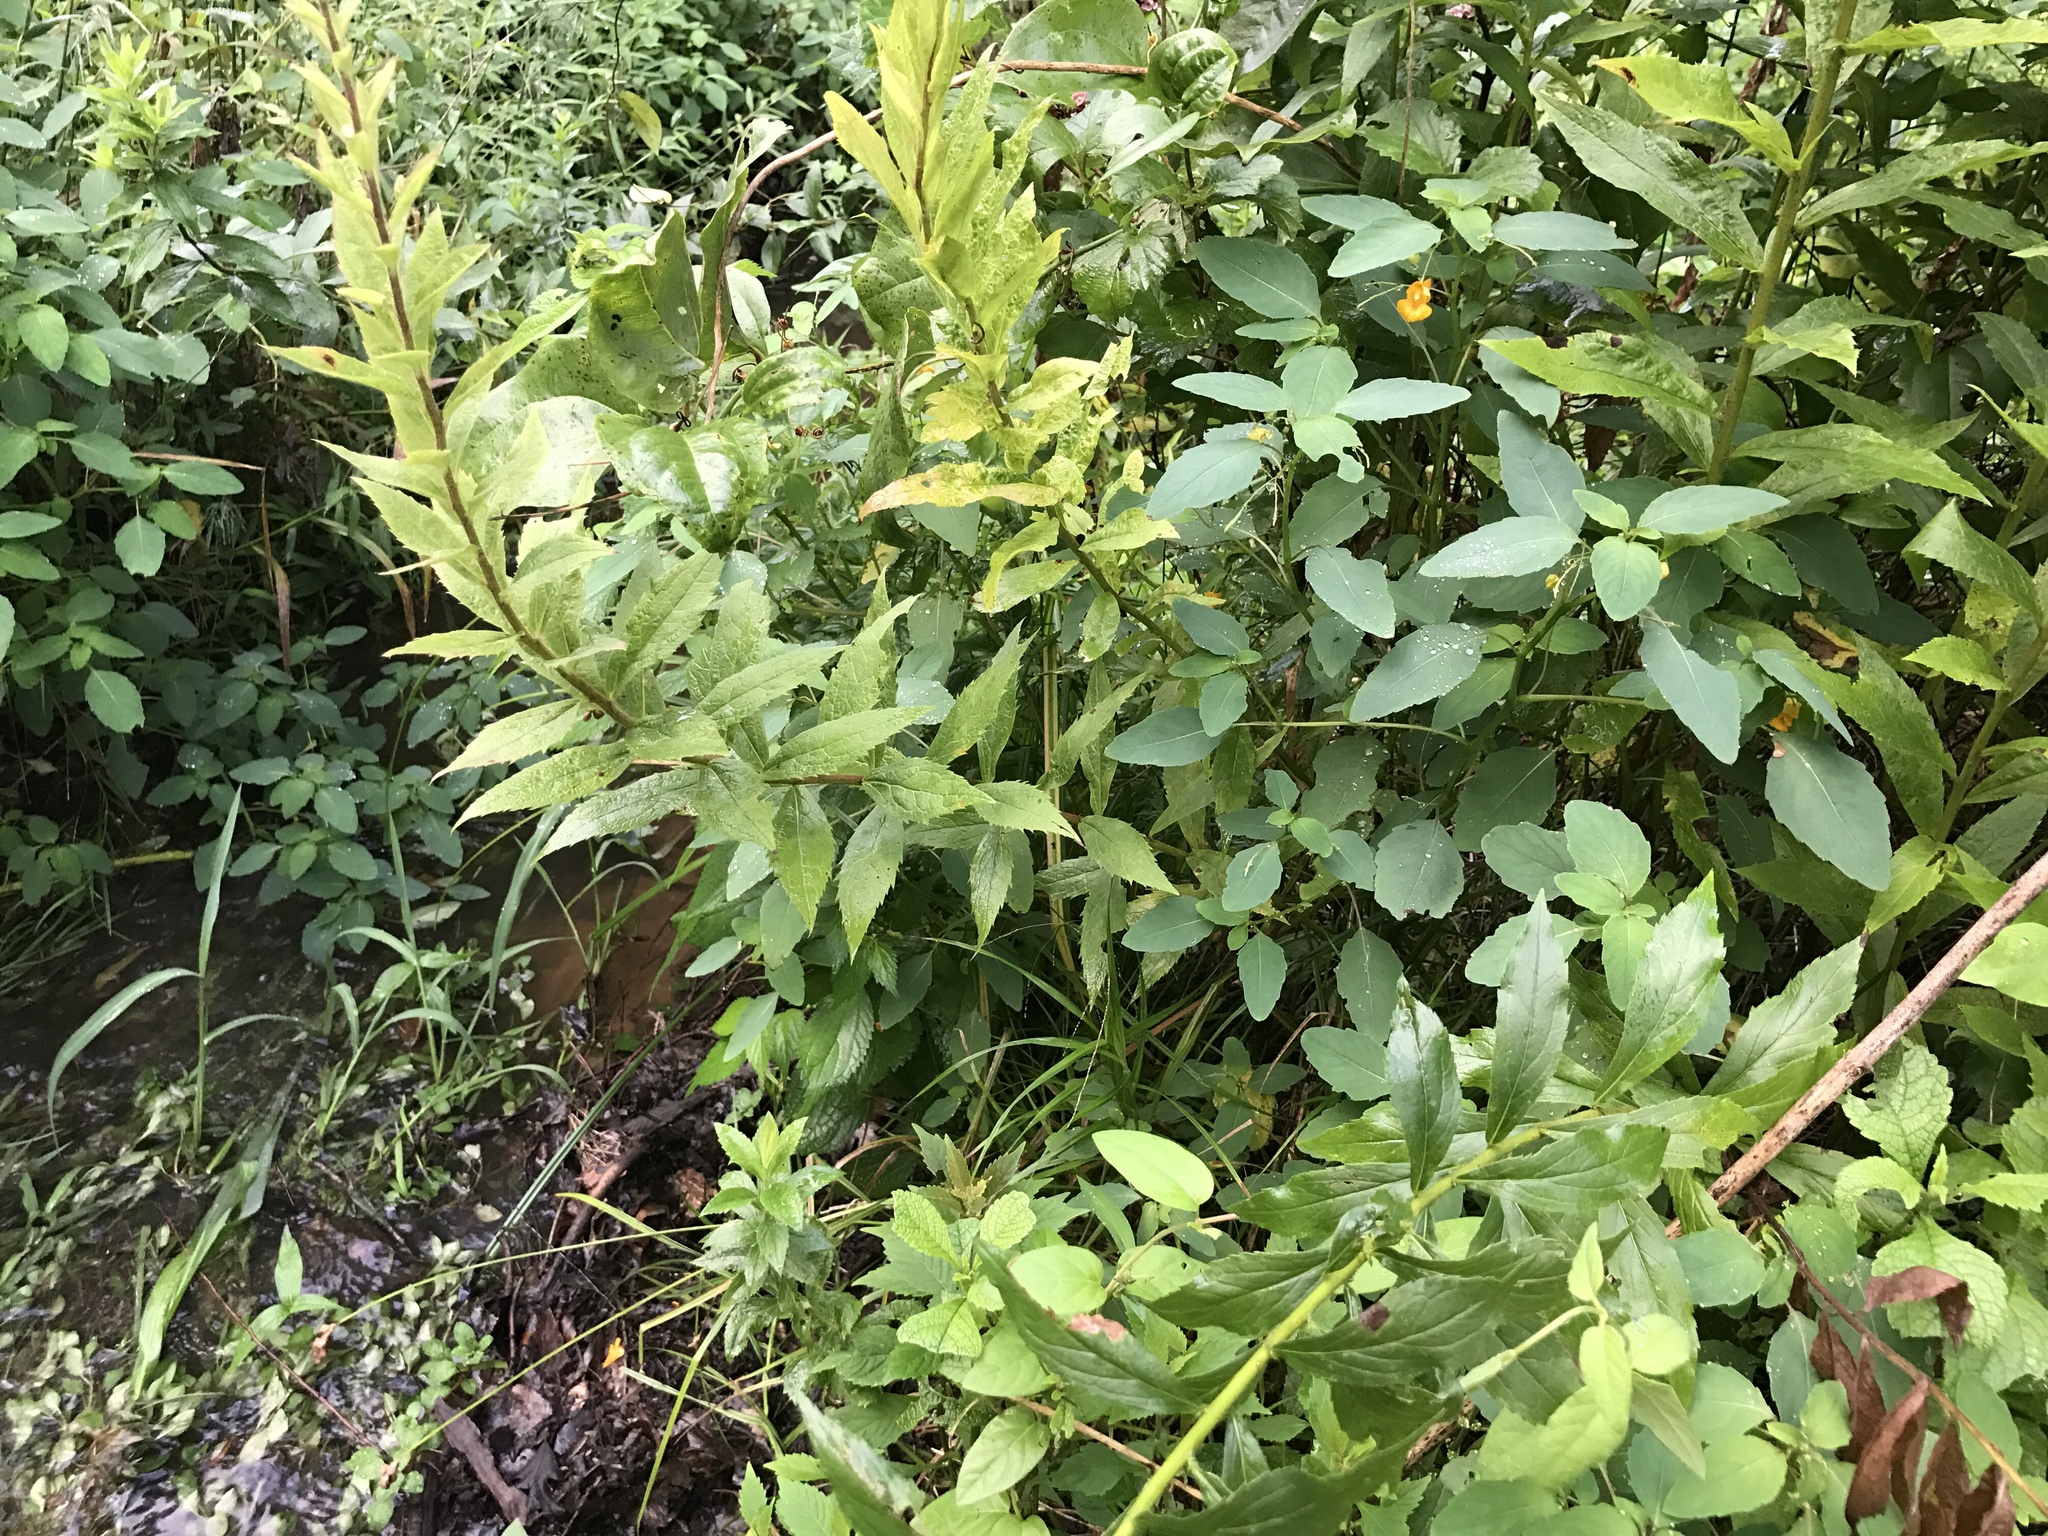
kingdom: Plantae
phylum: Tracheophyta
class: Magnoliopsida
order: Ericales
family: Balsaminaceae
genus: Impatiens
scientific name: Impatiens capensis
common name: Orange balsam
